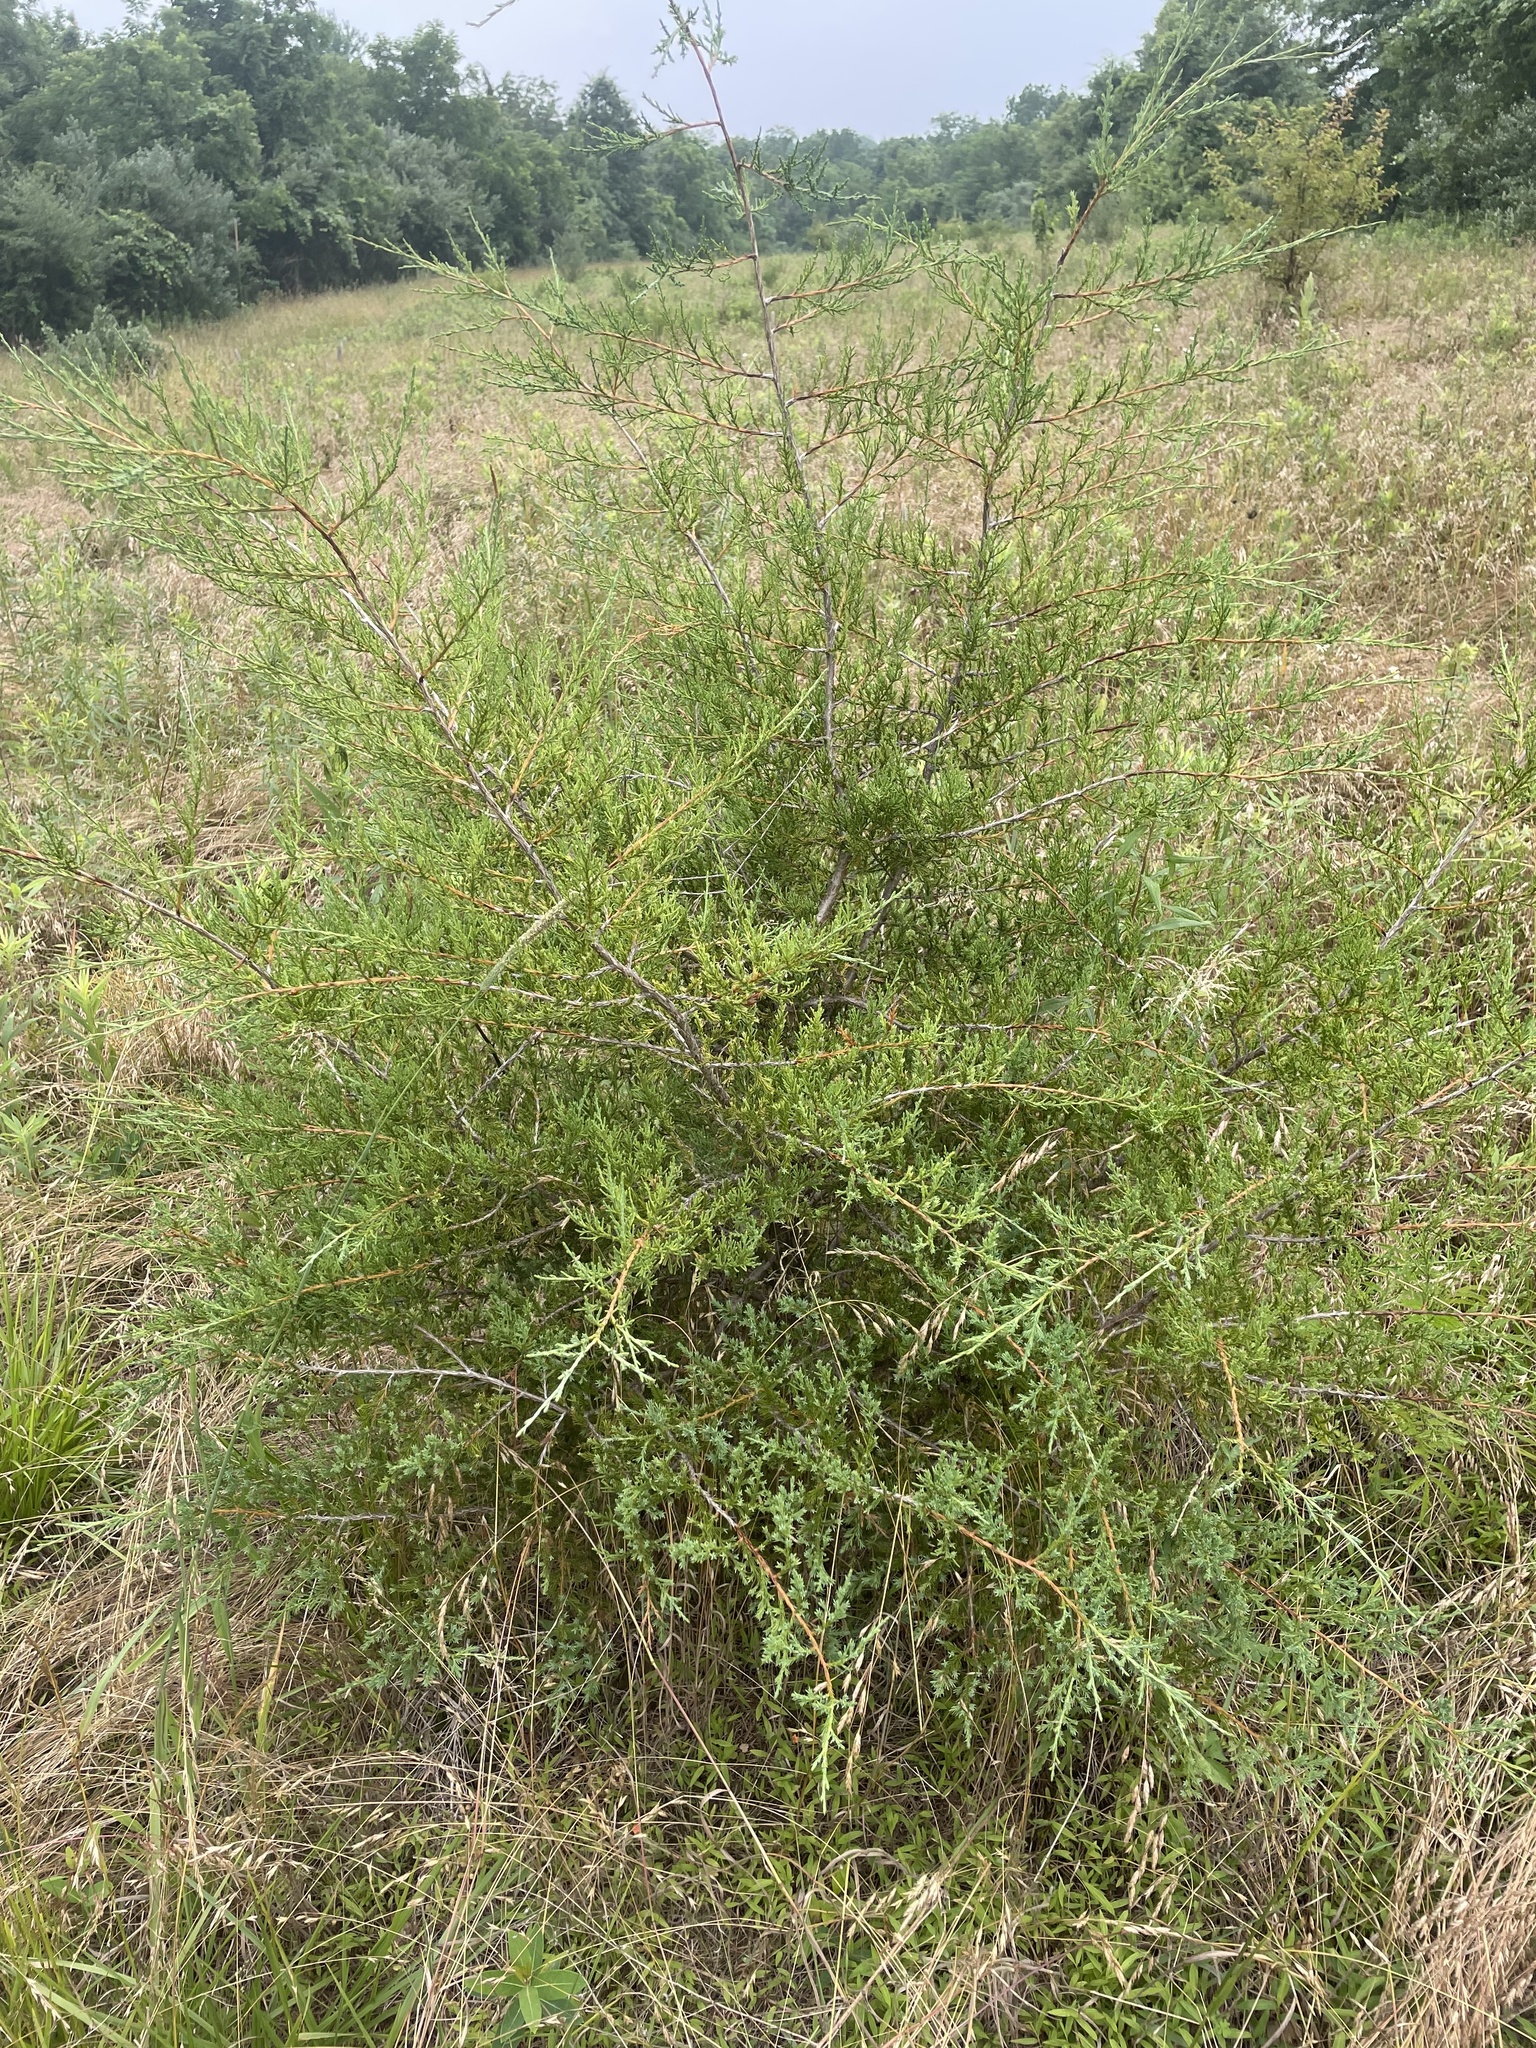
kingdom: Plantae
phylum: Tracheophyta
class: Pinopsida
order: Pinales
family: Cupressaceae
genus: Juniperus
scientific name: Juniperus virginiana
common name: Red juniper
